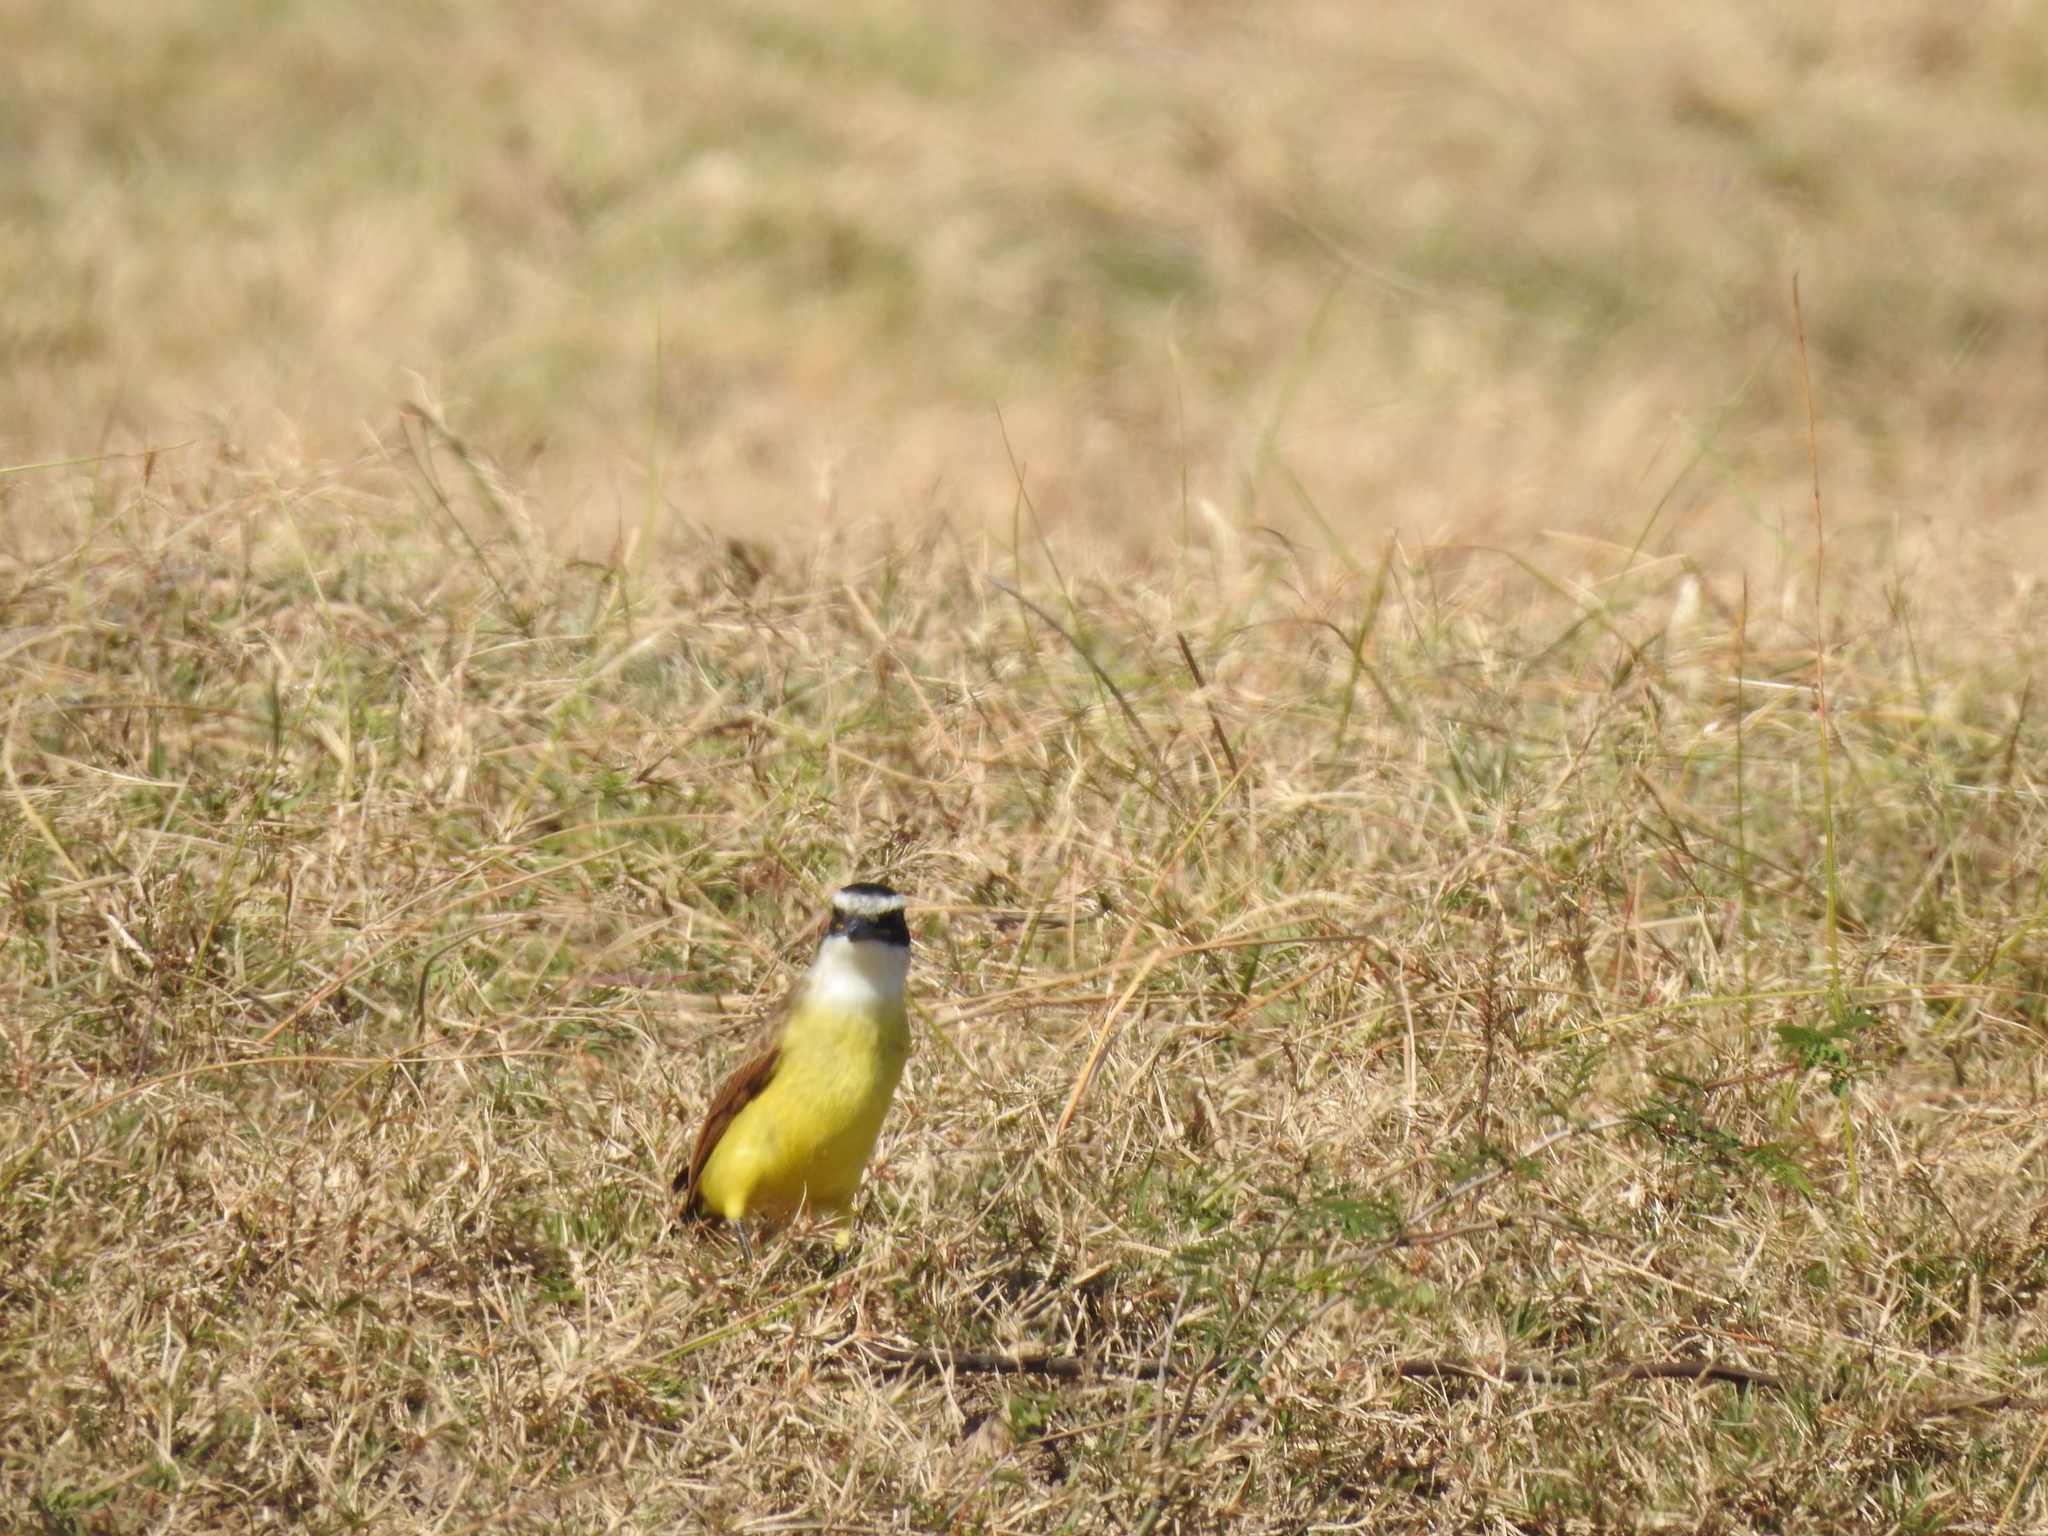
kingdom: Animalia
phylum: Chordata
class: Aves
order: Passeriformes
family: Tyrannidae
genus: Pitangus
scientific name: Pitangus sulphuratus
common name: Great kiskadee
